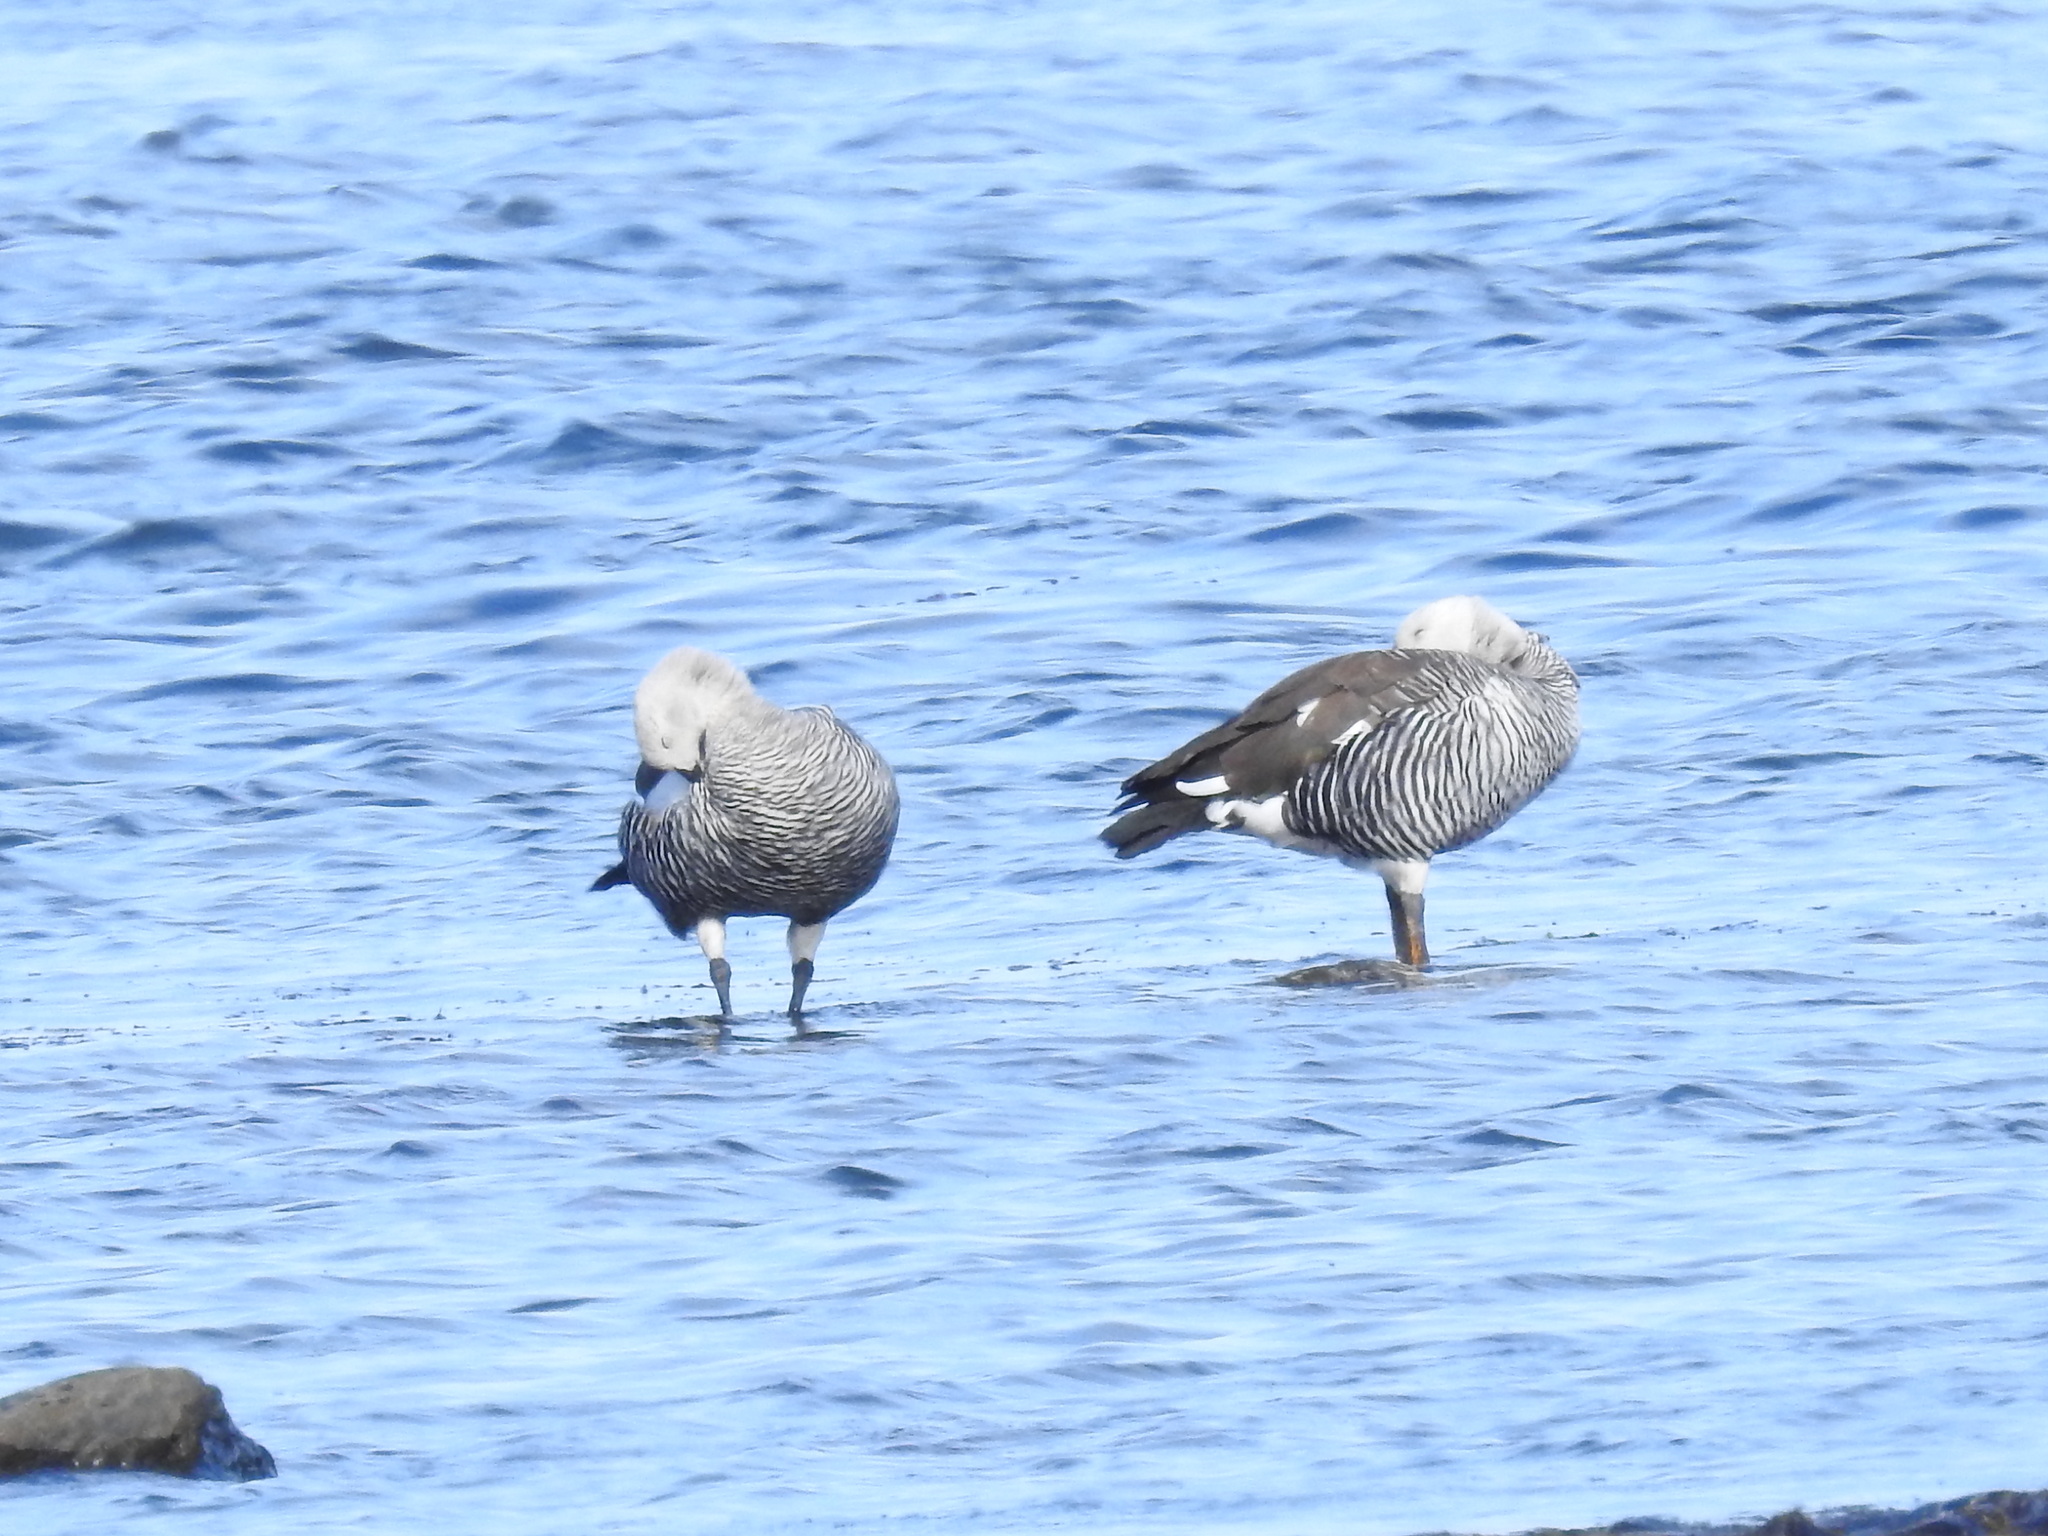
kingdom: Animalia
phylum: Chordata
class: Aves
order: Anseriformes
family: Anatidae
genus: Chloephaga
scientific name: Chloephaga picta
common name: Upland goose
